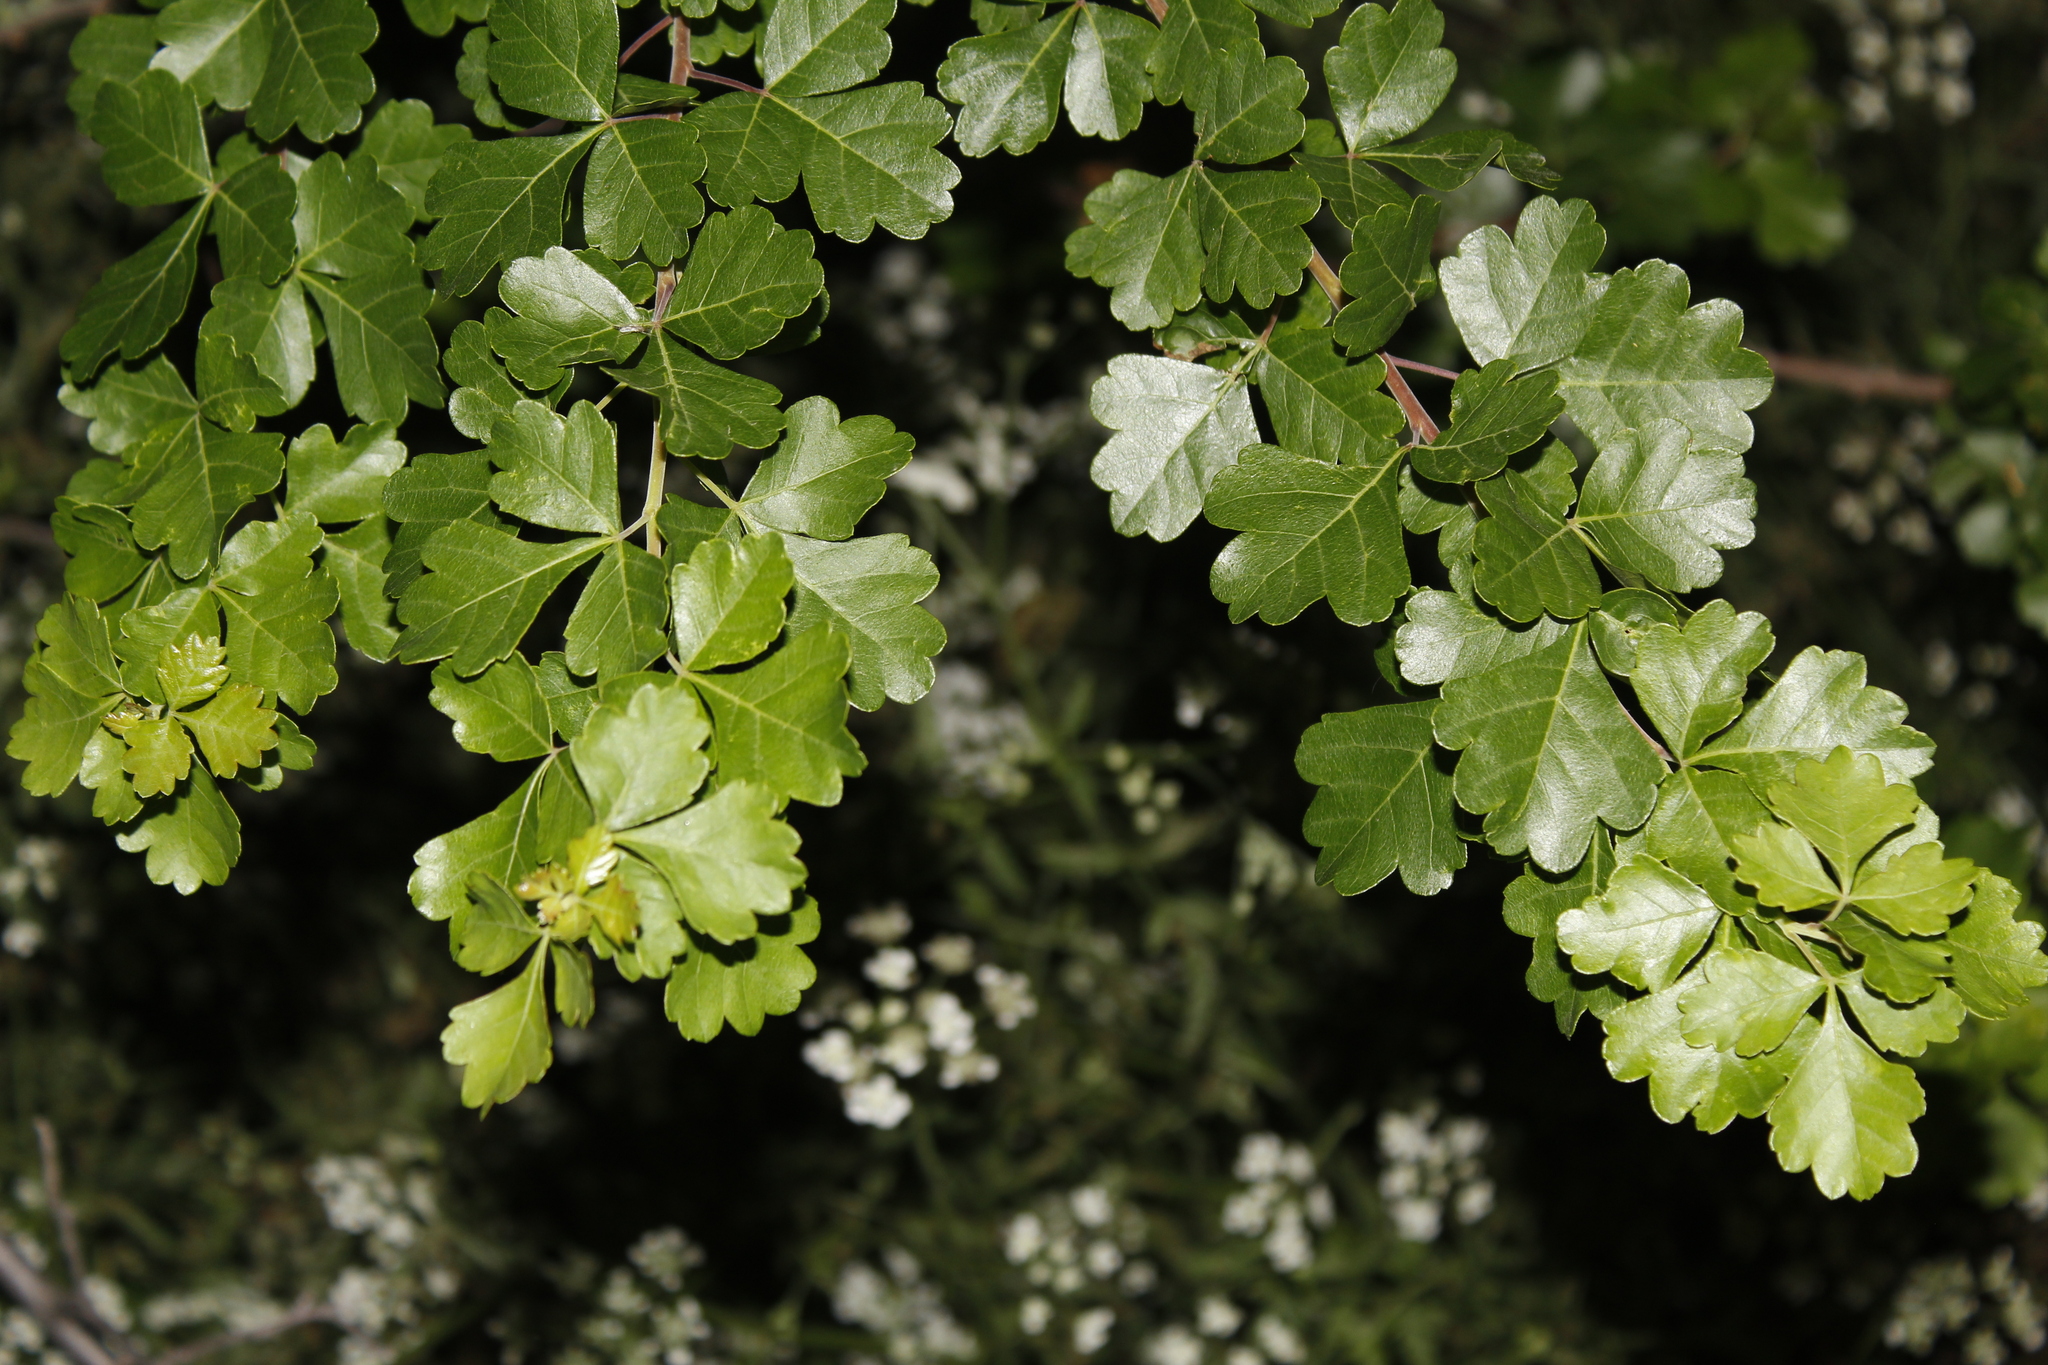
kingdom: Plantae
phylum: Tracheophyta
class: Magnoliopsida
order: Sapindales
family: Anacardiaceae
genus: Rhus
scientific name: Rhus aromatica
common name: Aromatic sumac
